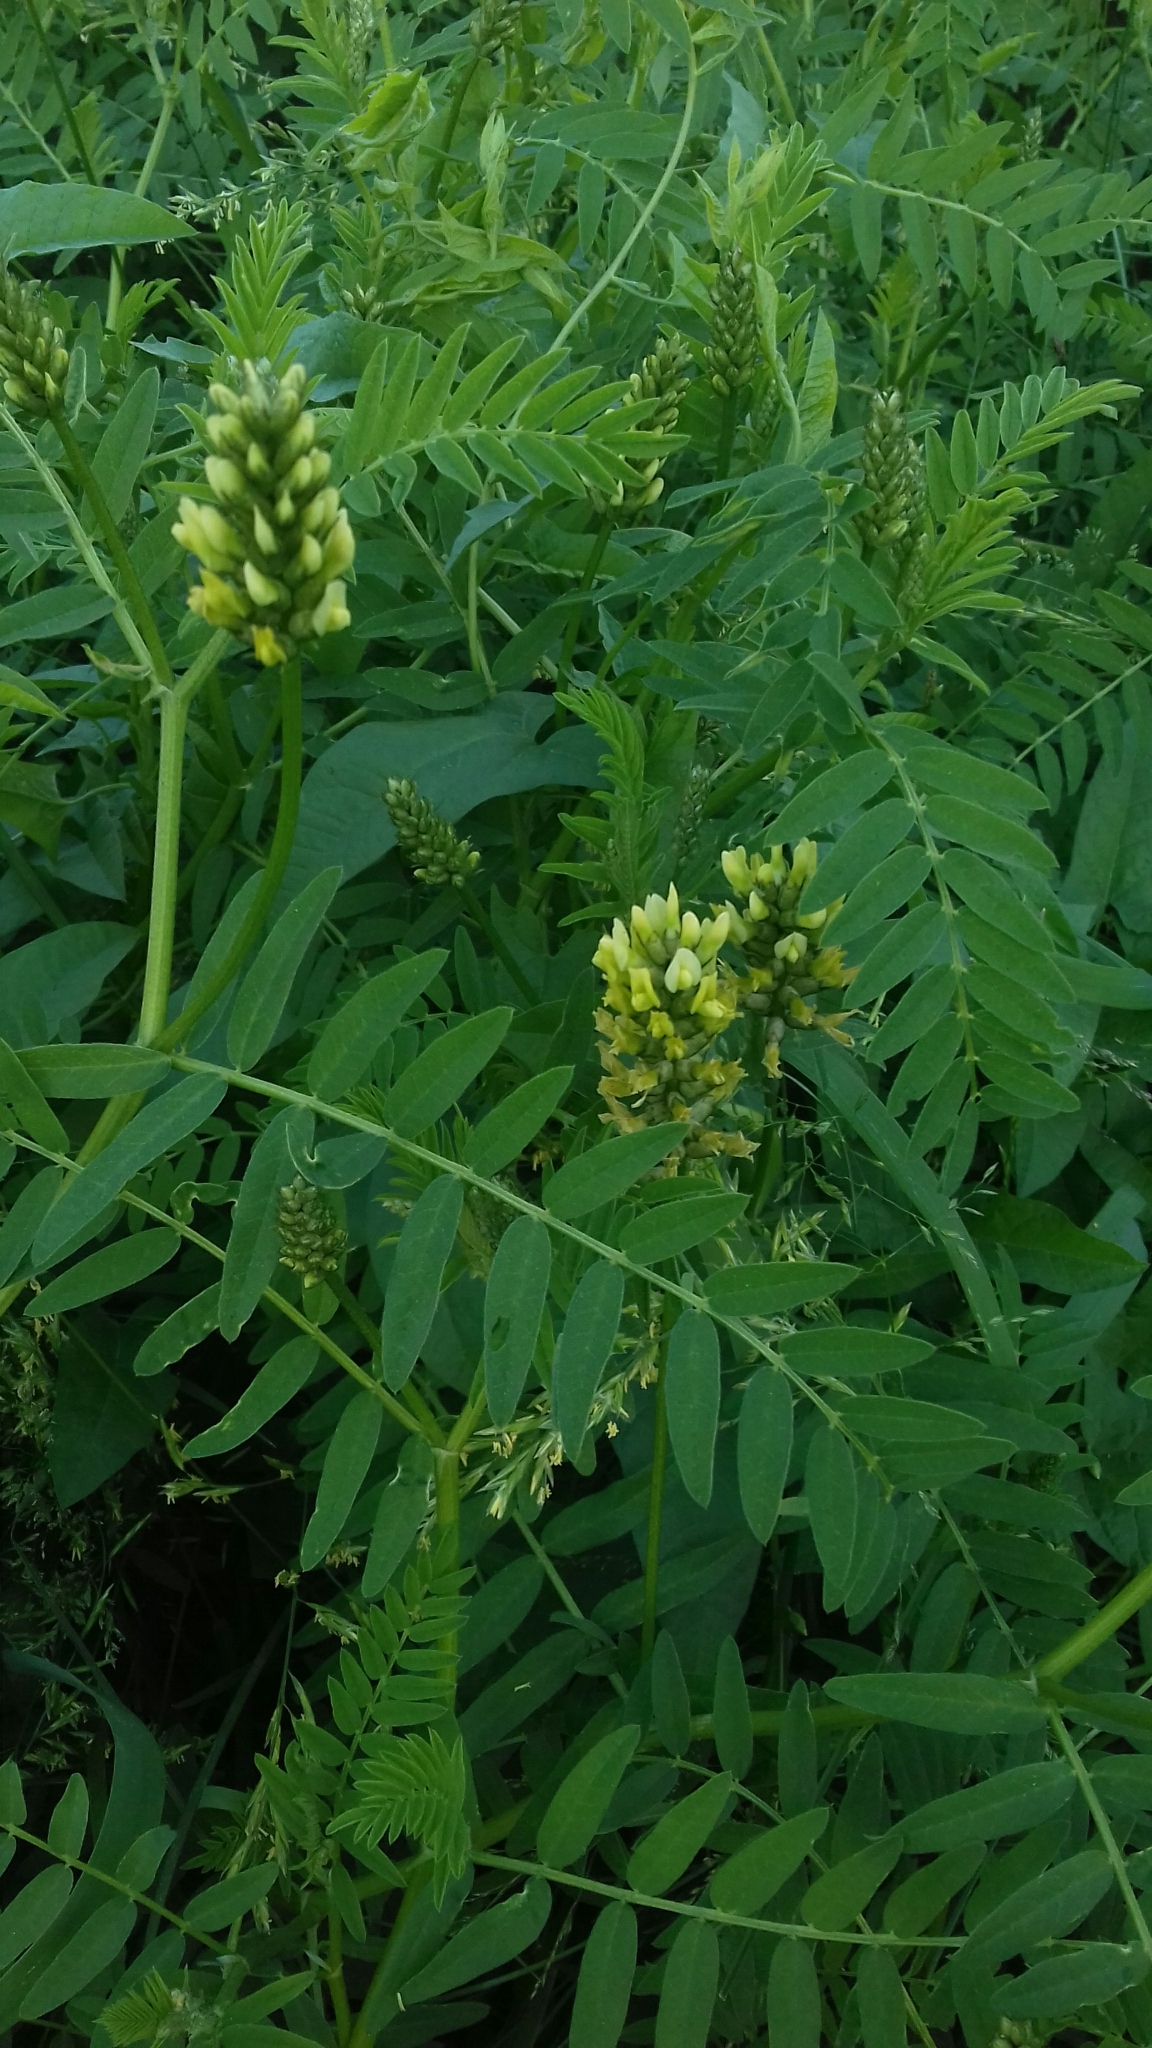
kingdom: Plantae
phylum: Tracheophyta
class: Magnoliopsida
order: Fabales
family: Fabaceae
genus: Astragalus
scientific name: Astragalus cicer
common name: Chick-pea milk-vetch
